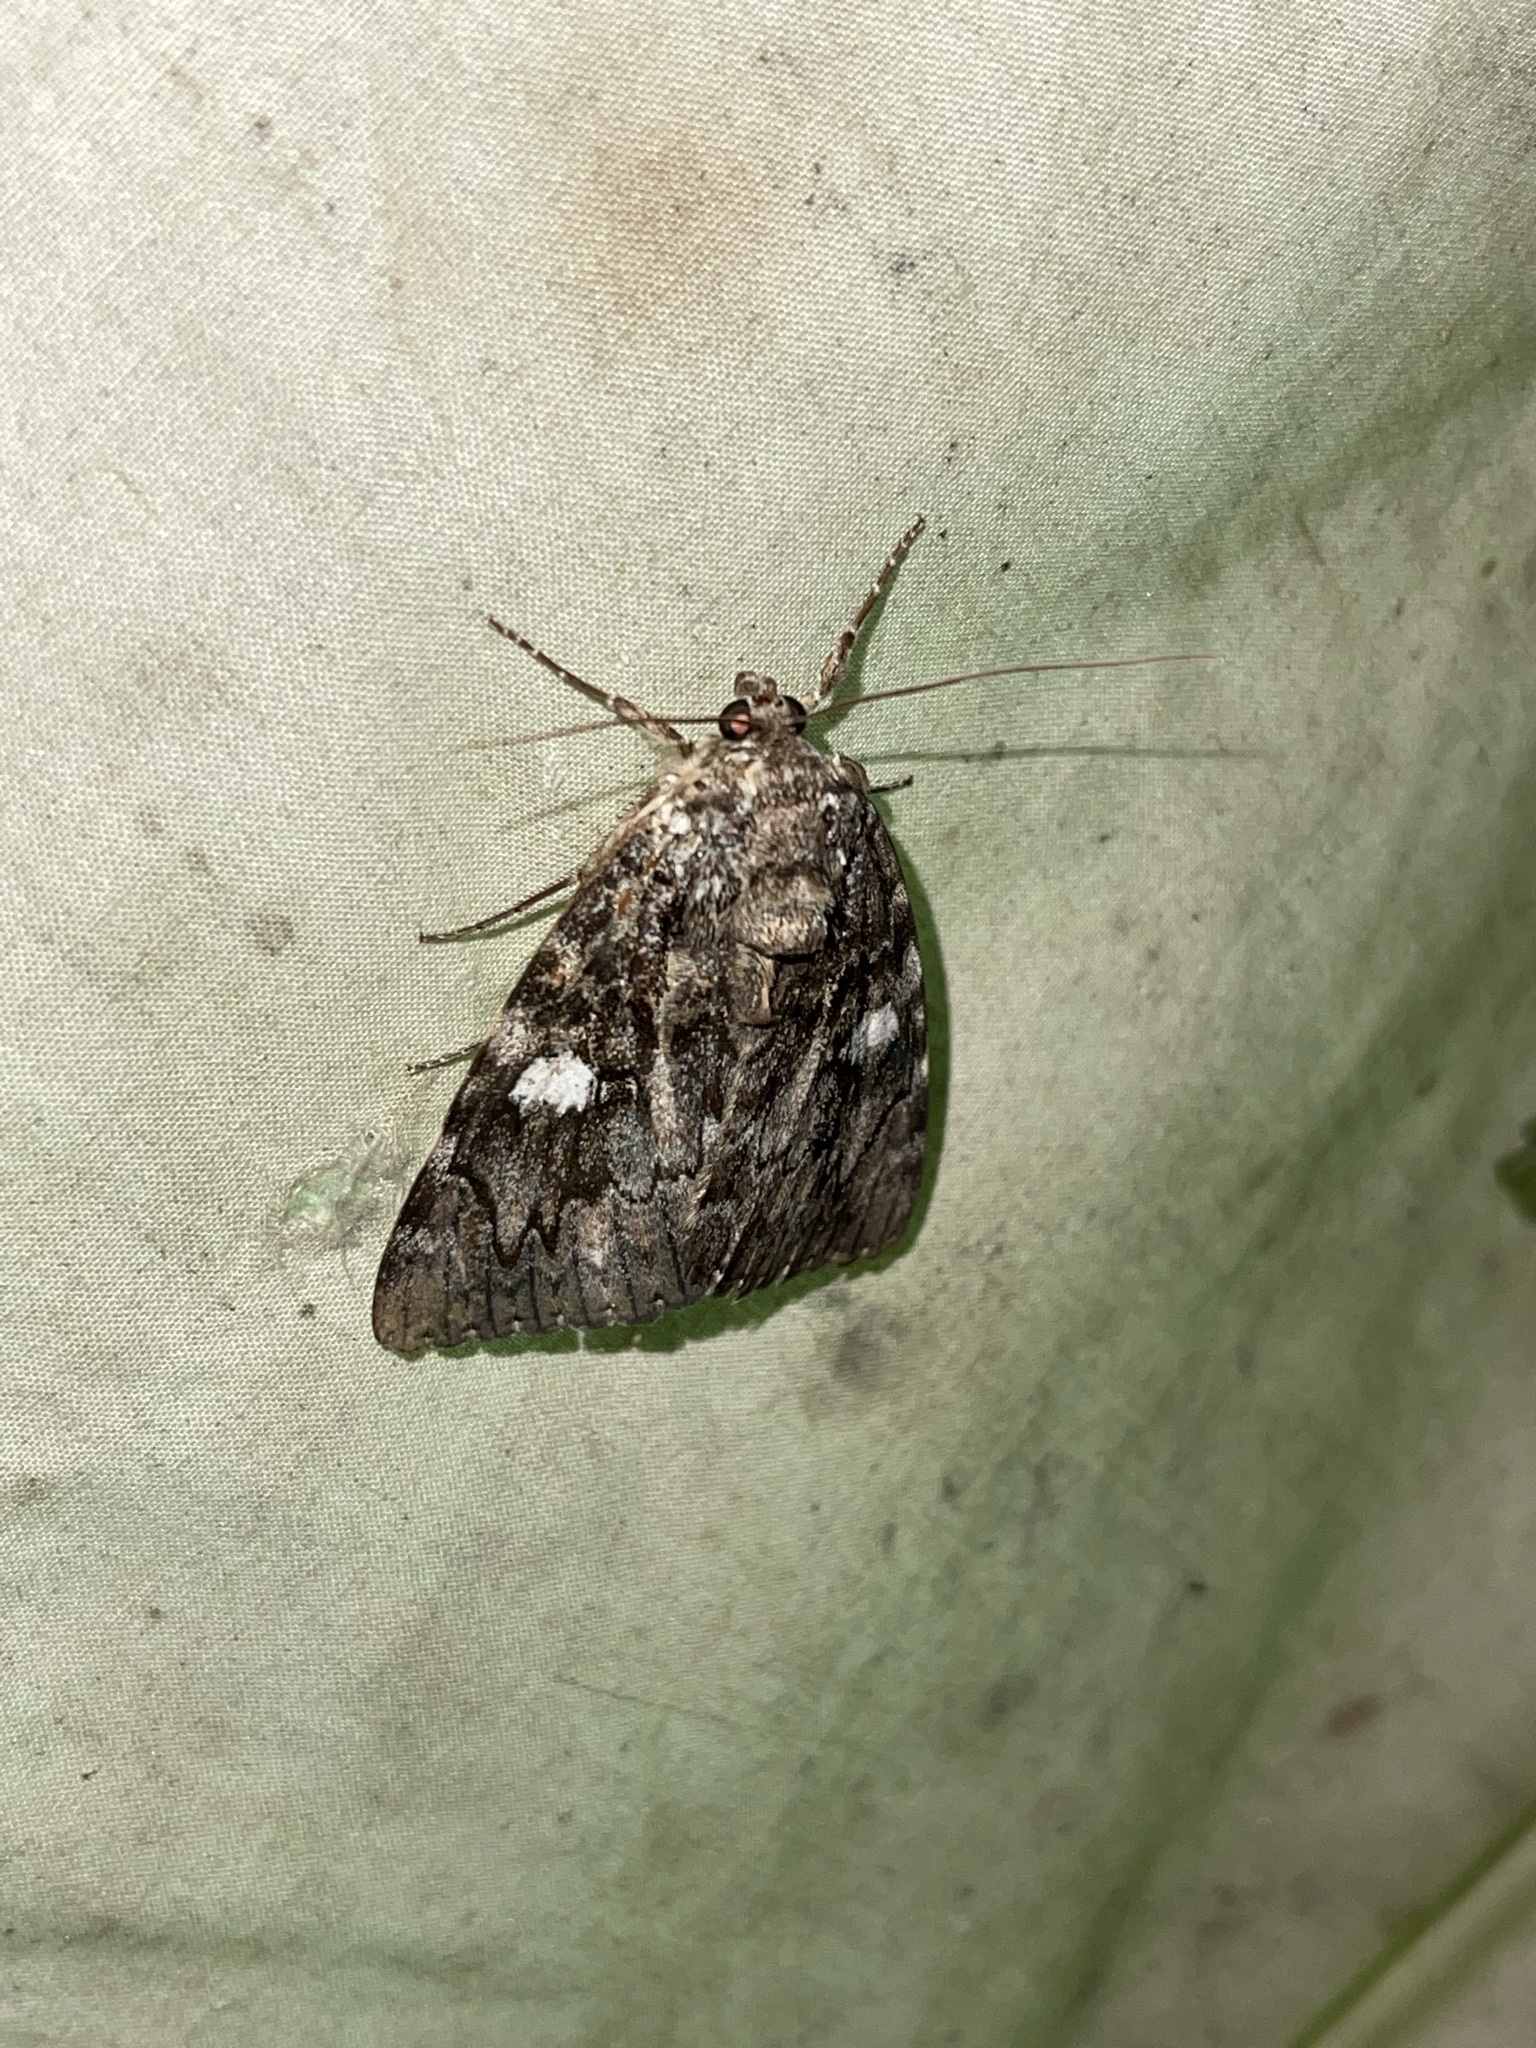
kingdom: Animalia
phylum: Arthropoda
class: Insecta
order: Lepidoptera
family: Erebidae
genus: Catocala
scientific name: Catocala ilia
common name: Ilia underwing
